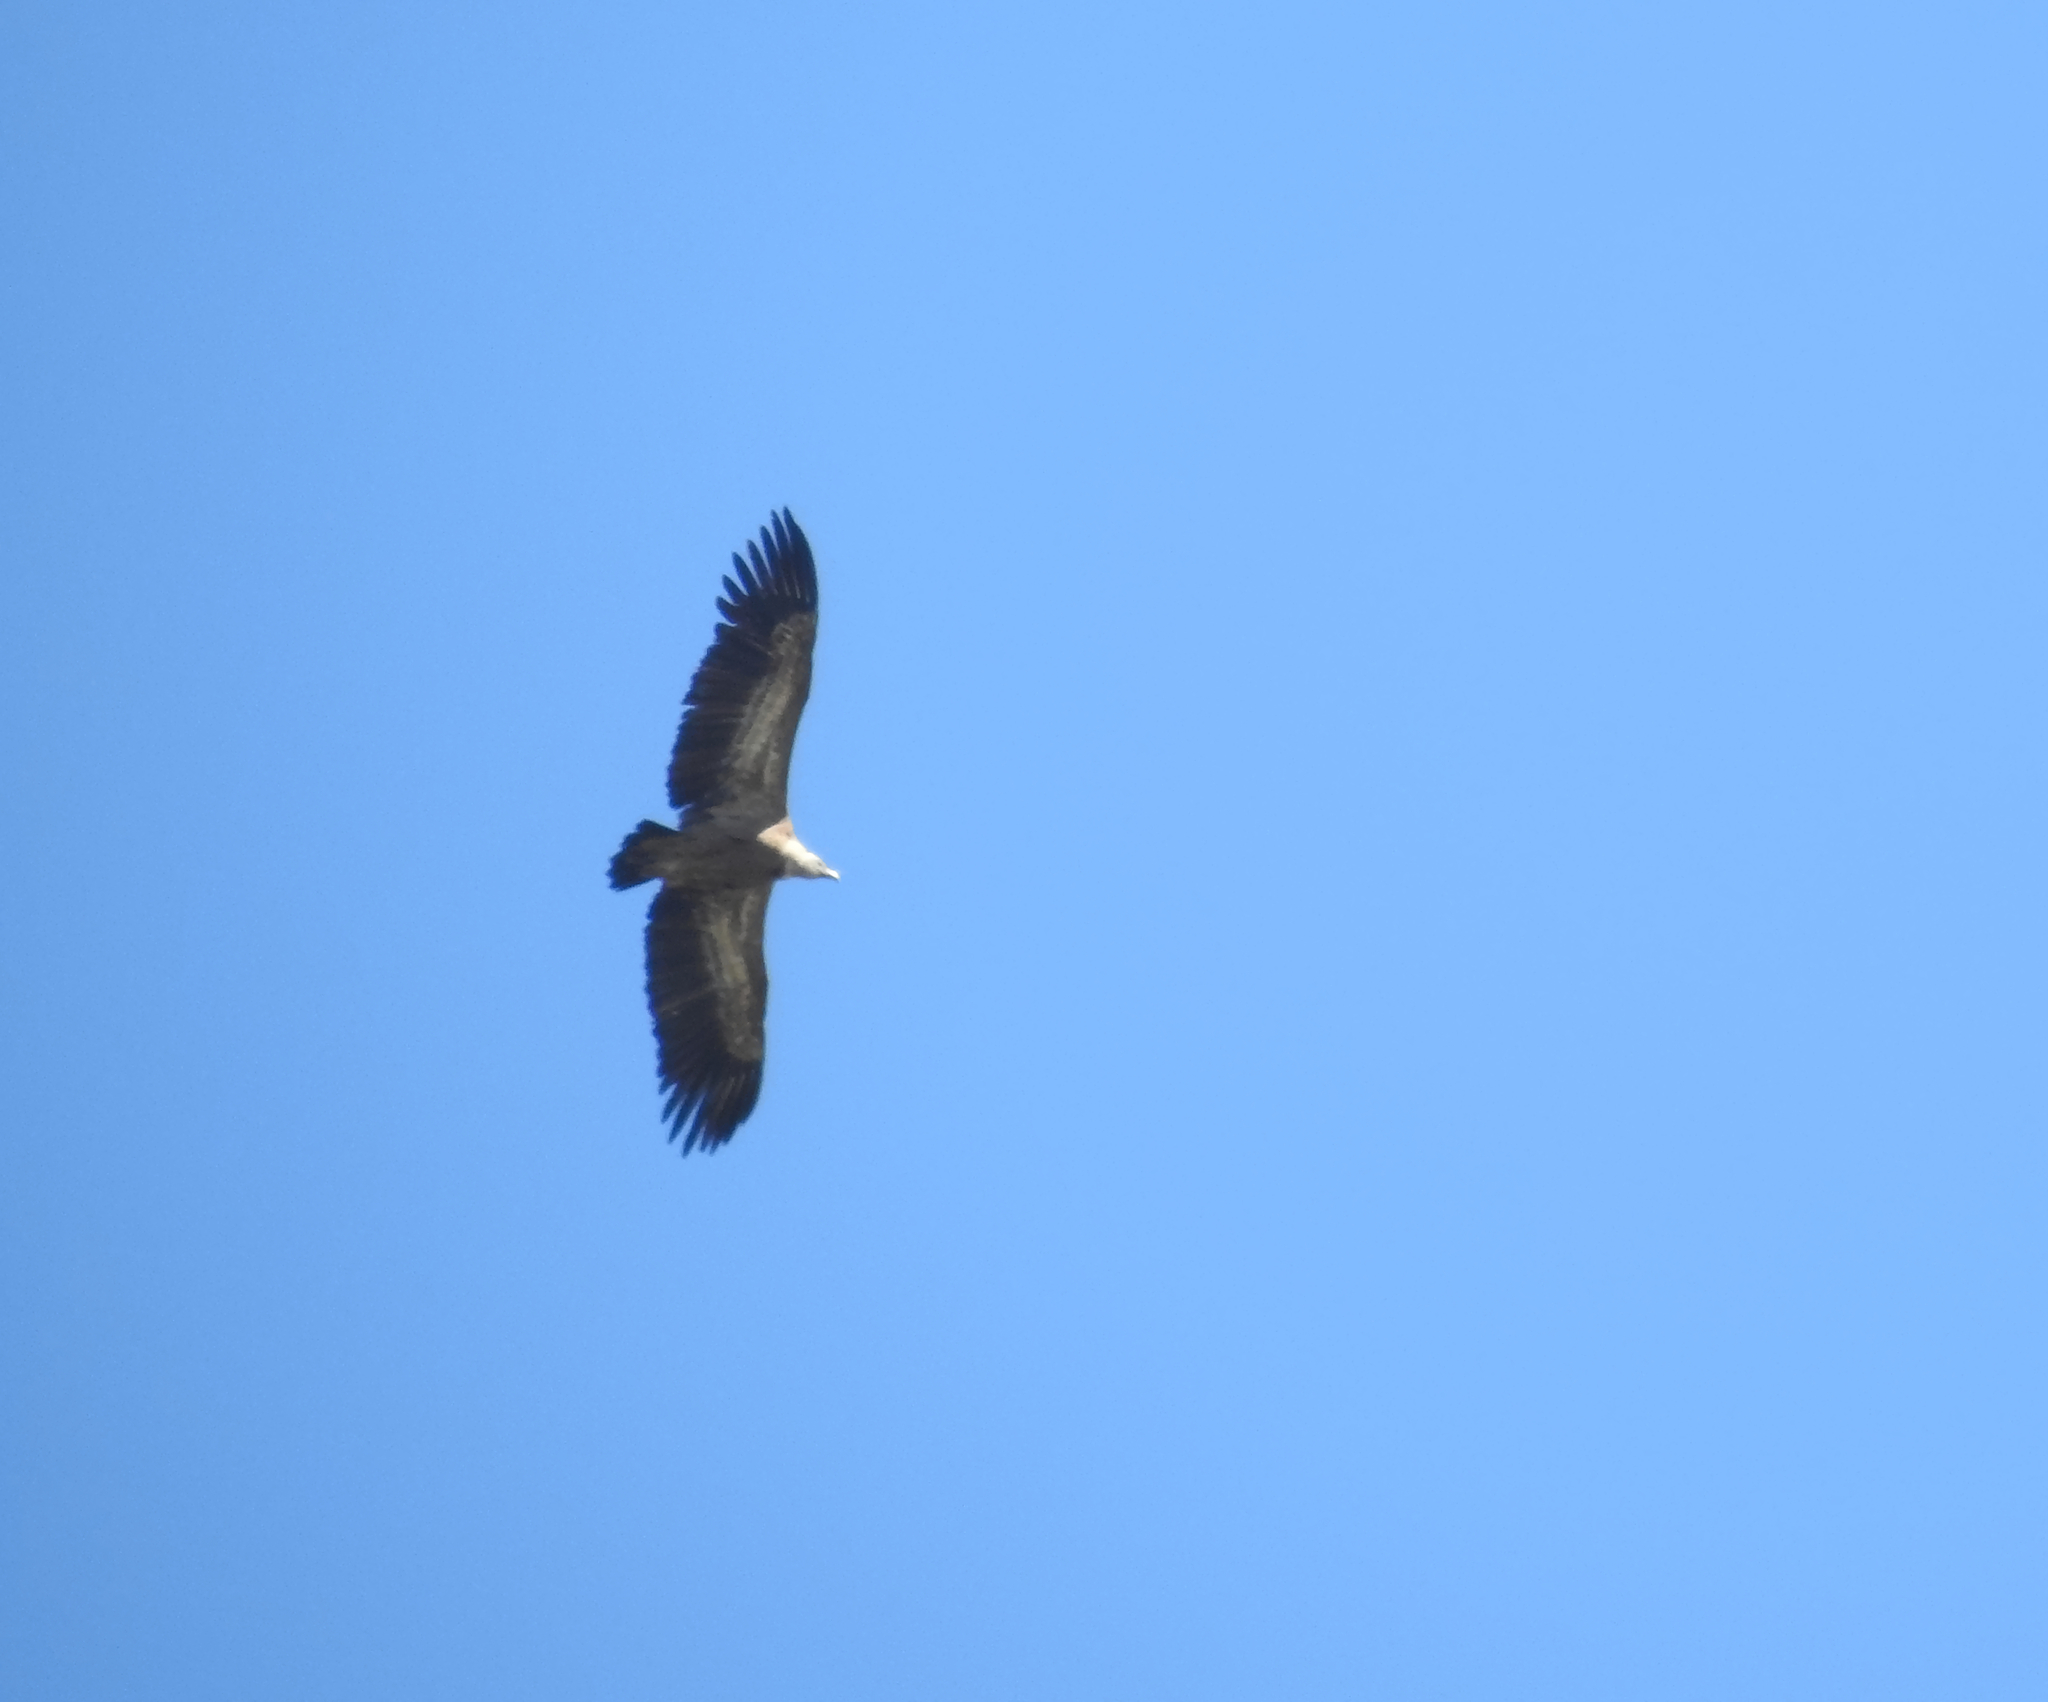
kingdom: Animalia
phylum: Chordata
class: Aves
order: Accipitriformes
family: Accipitridae
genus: Gyps
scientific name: Gyps fulvus
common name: Griffon vulture
